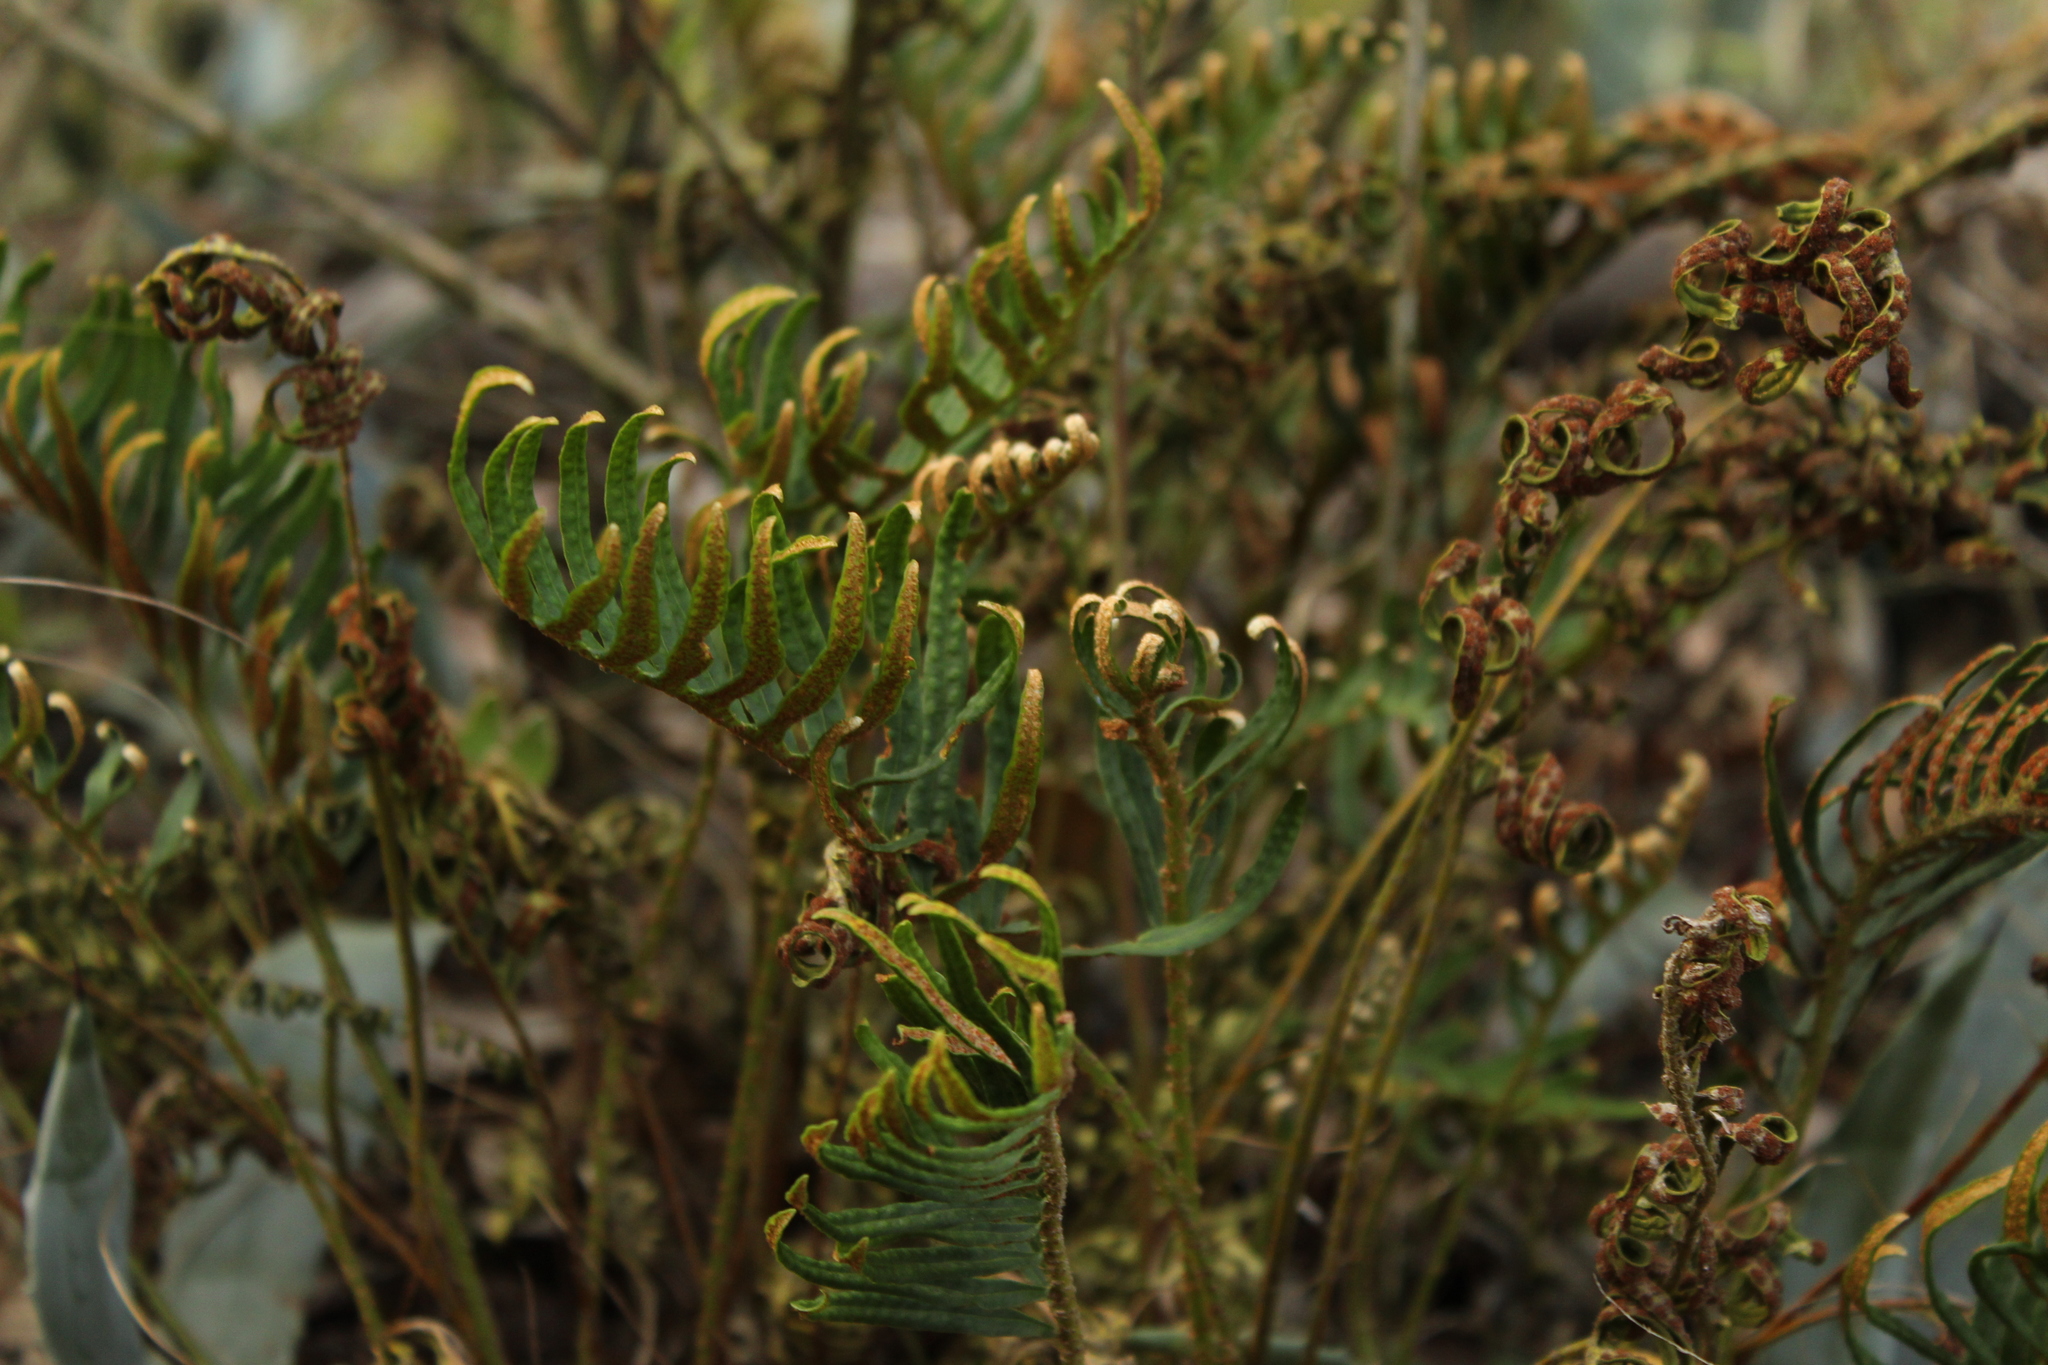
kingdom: Plantae
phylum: Tracheophyta
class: Polypodiopsida
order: Polypodiales
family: Polypodiaceae
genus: Pleopeltis
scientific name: Pleopeltis orientalis
